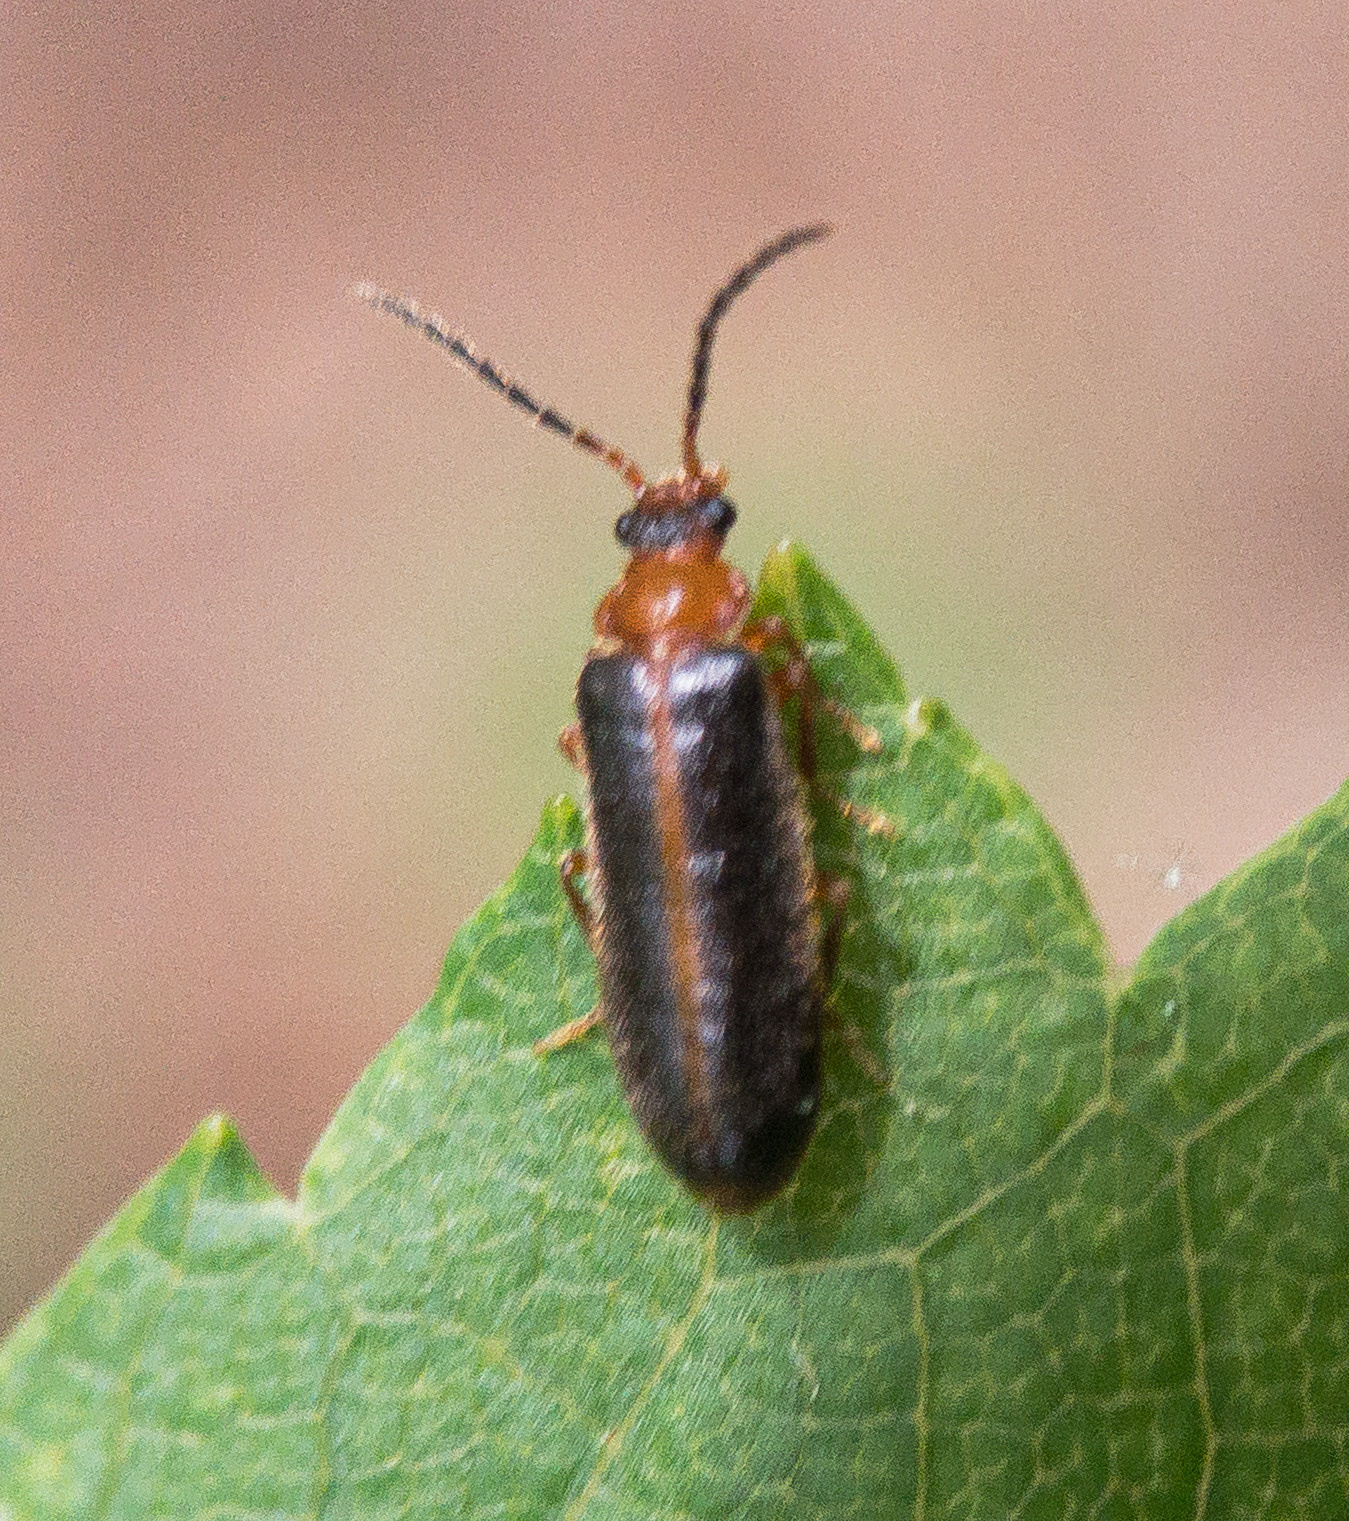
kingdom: Animalia
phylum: Arthropoda
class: Insecta
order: Coleoptera
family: Omethidae
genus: Omethes
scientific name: Omethes marginatus
